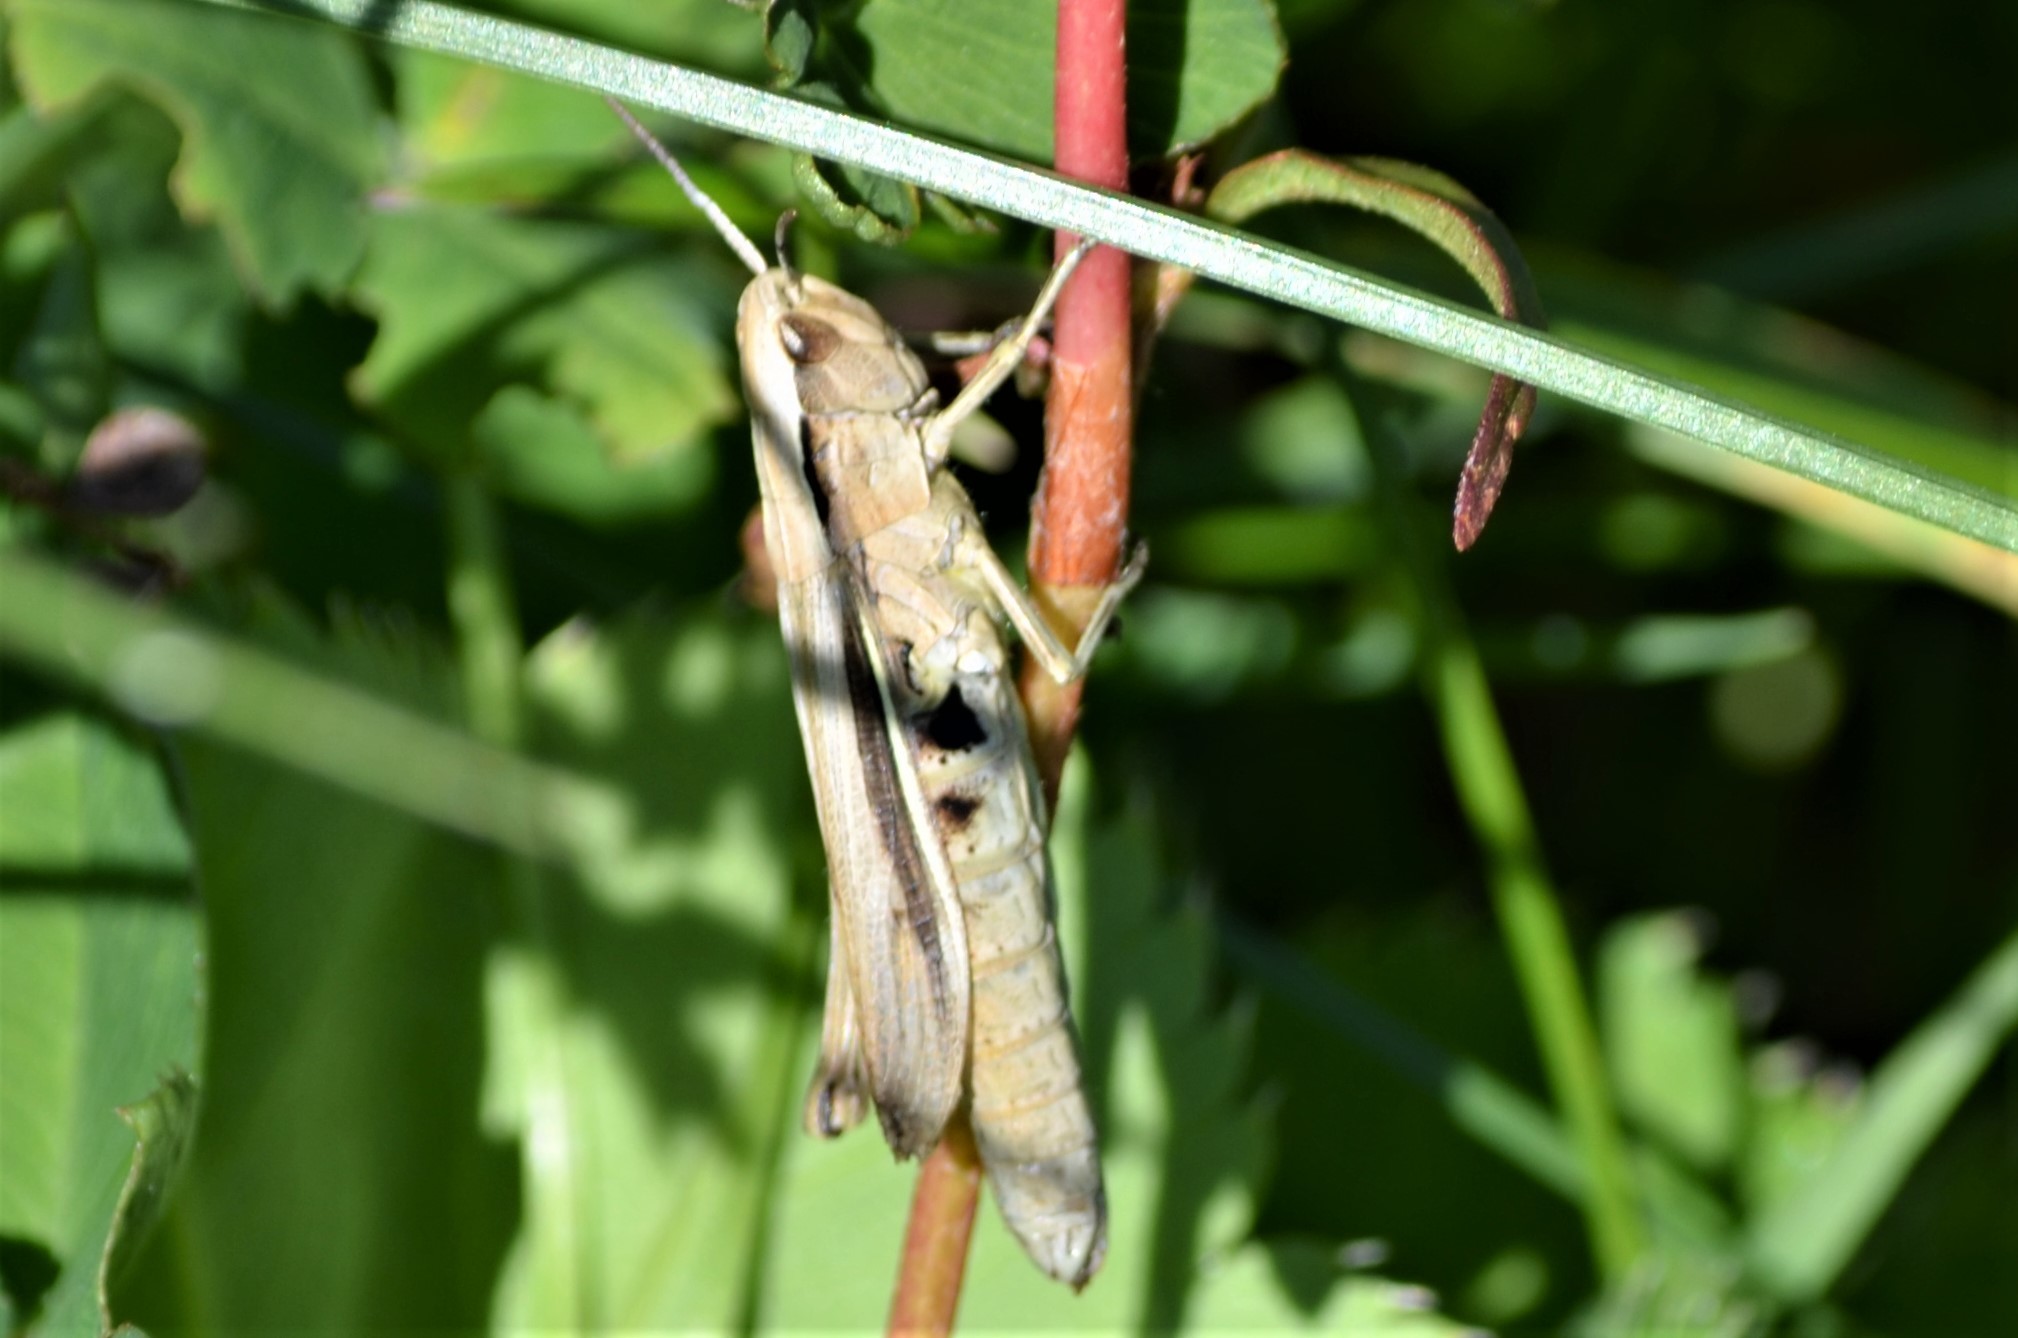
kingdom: Animalia
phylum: Arthropoda
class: Insecta
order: Orthoptera
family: Acrididae
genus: Chorthippus
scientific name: Chorthippus albomarginatus
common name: Lesser marsh grasshopper
